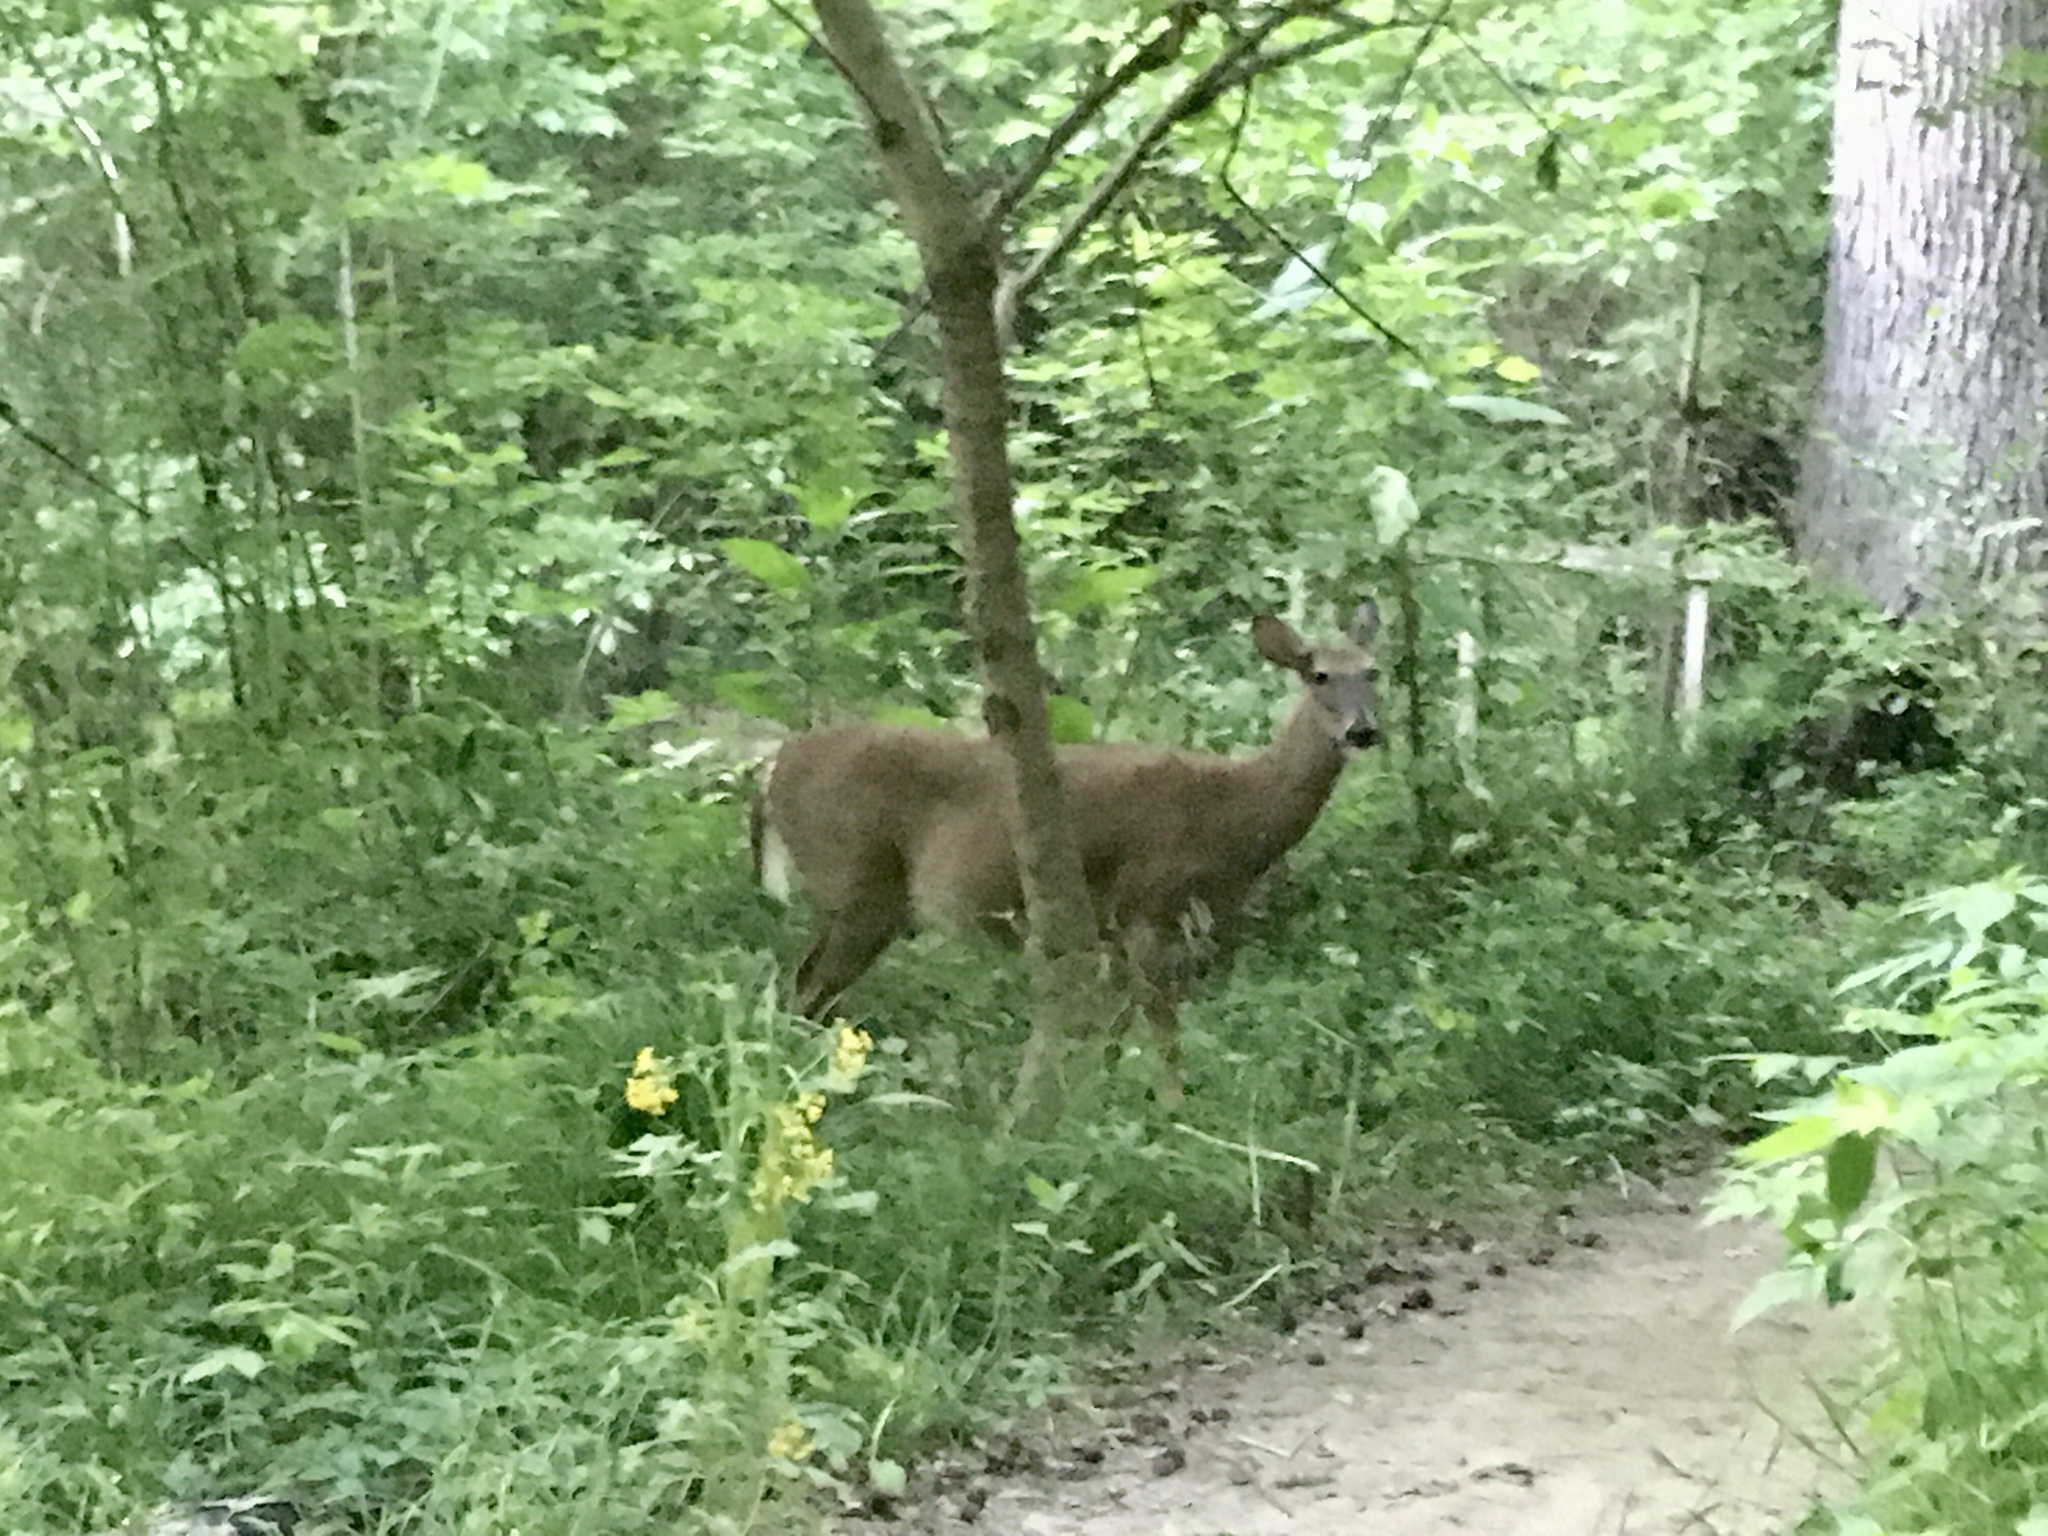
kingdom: Animalia
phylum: Chordata
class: Mammalia
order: Artiodactyla
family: Cervidae
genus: Odocoileus
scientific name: Odocoileus virginianus
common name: White-tailed deer
